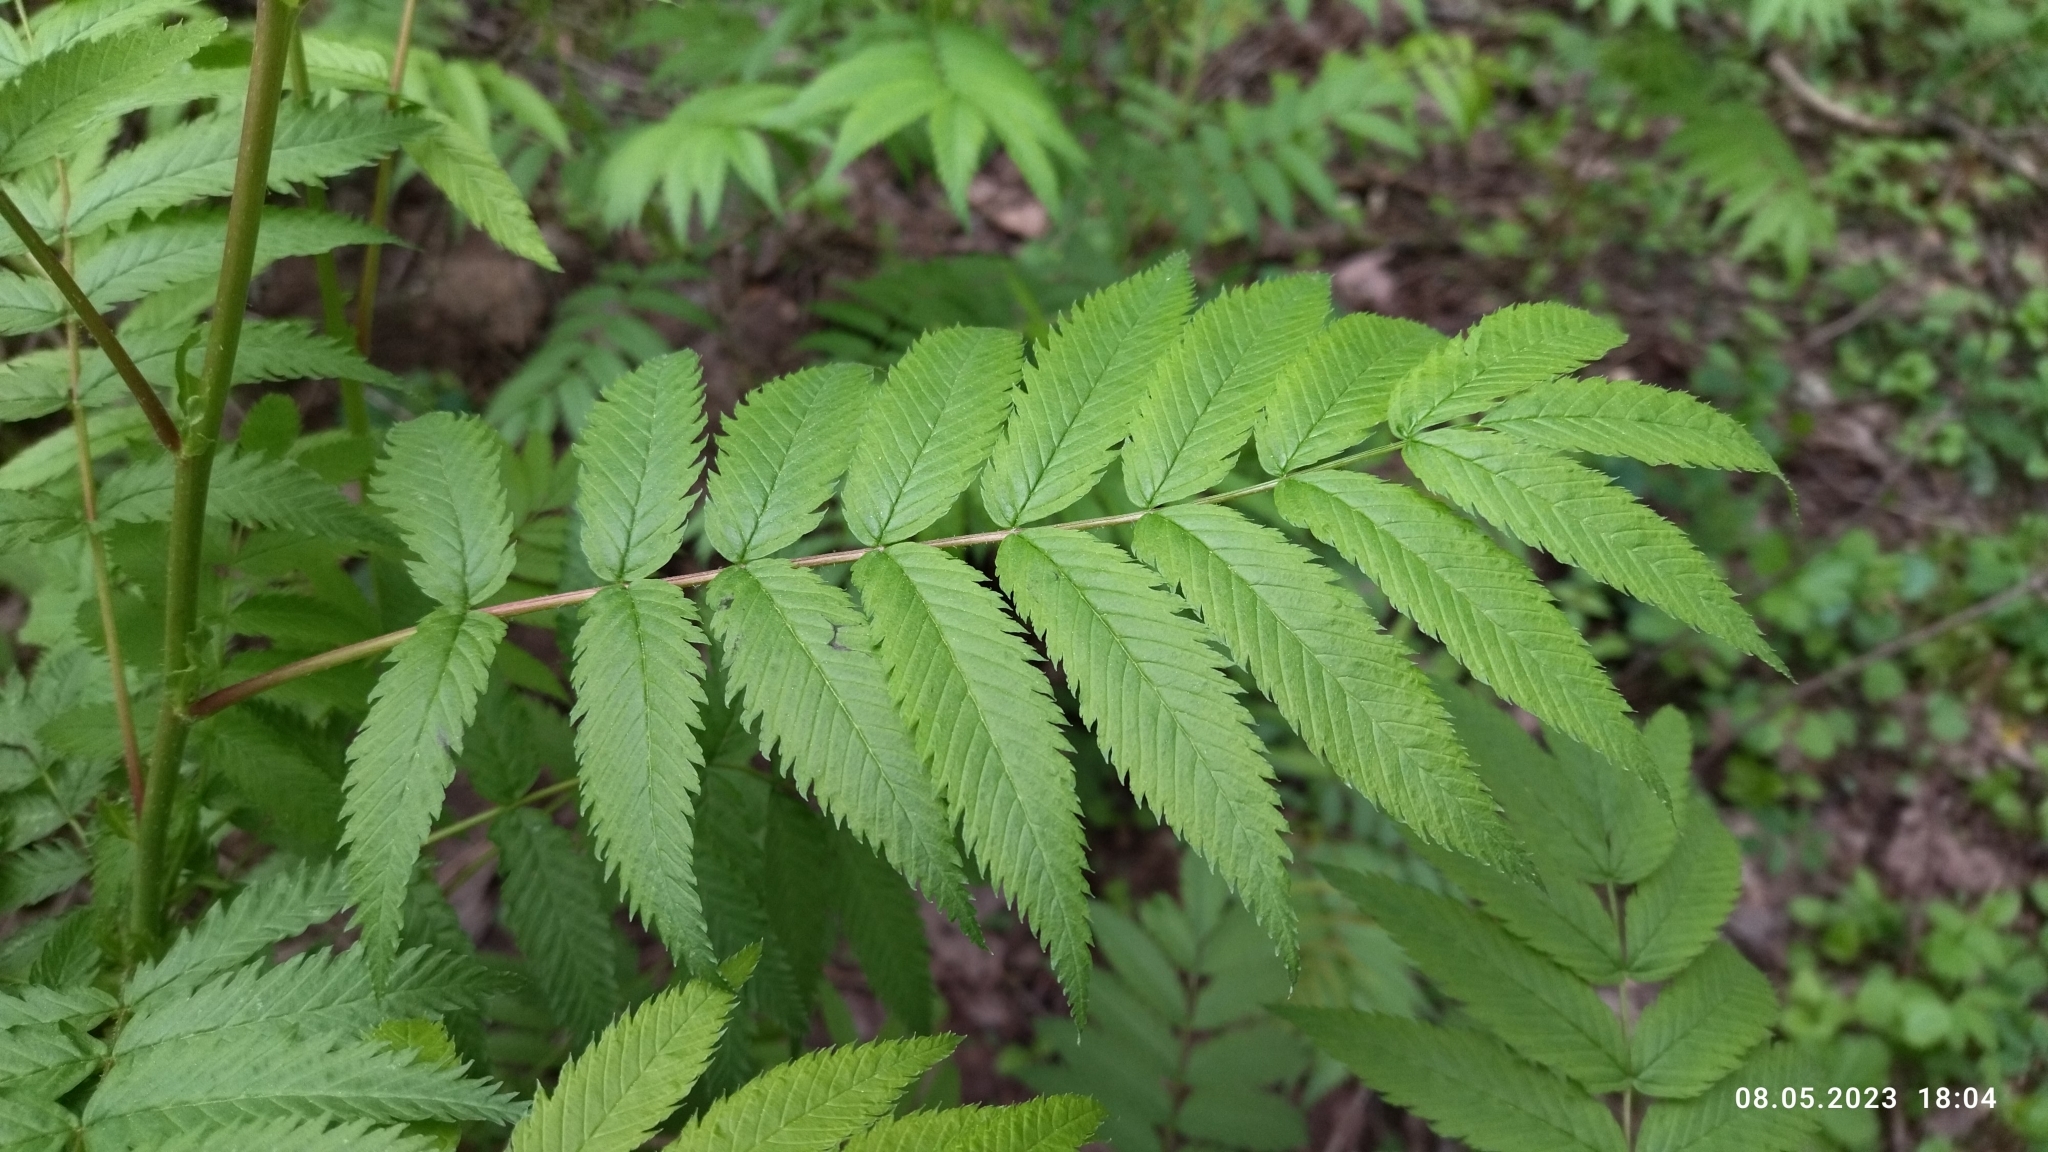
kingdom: Plantae
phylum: Tracheophyta
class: Magnoliopsida
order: Rosales
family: Rosaceae
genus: Sorbaria
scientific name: Sorbaria sorbifolia
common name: False spiraea
